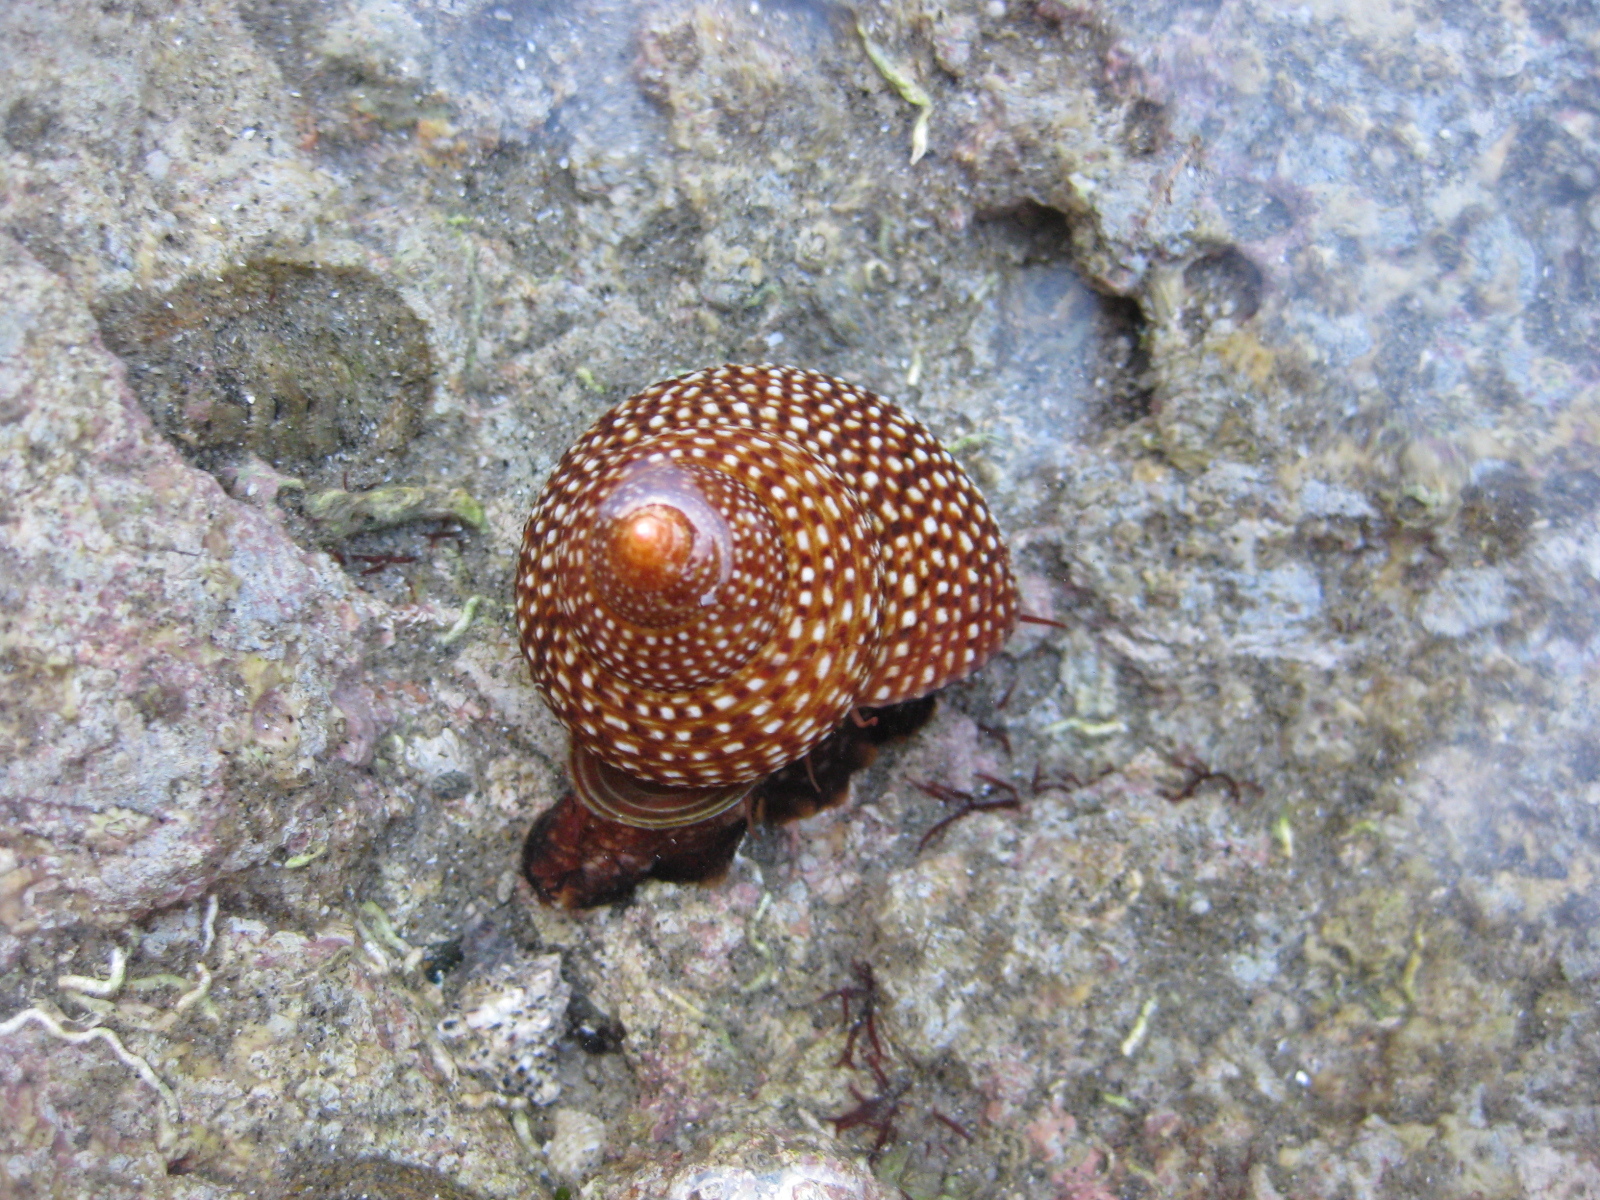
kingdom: Animalia
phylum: Mollusca
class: Gastropoda
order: Trochida
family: Calliostomatidae
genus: Maurea
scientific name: Maurea punctulata
